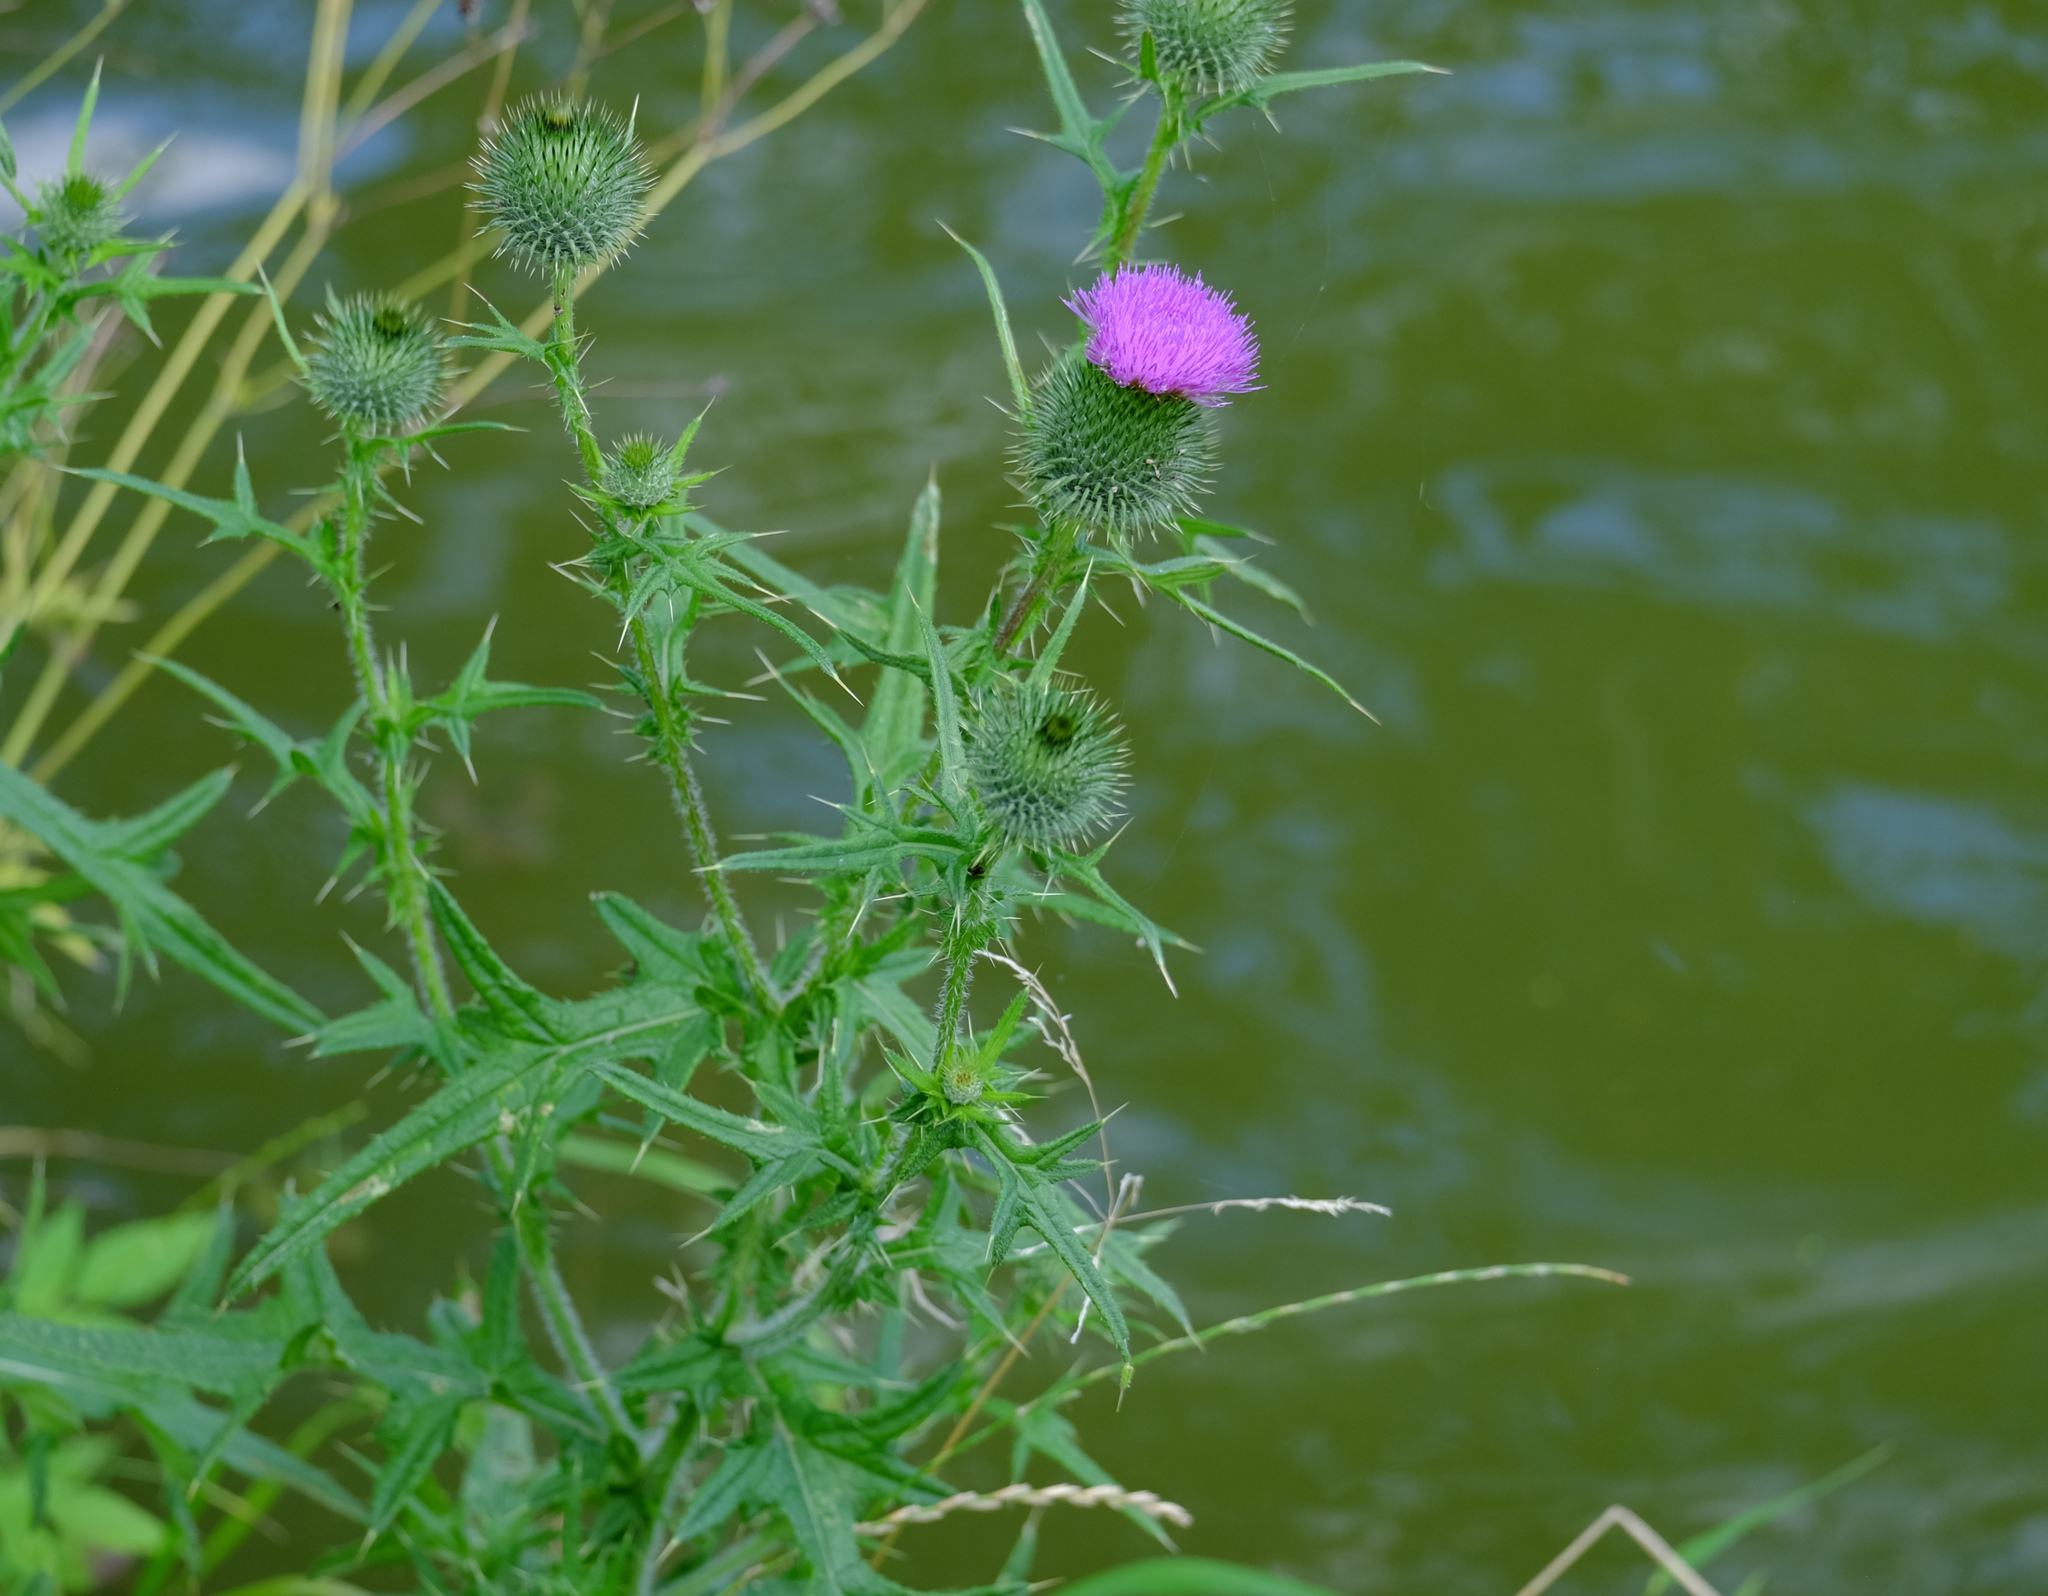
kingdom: Plantae
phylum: Tracheophyta
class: Magnoliopsida
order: Asterales
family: Asteraceae
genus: Cirsium
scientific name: Cirsium vulgare
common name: Bull thistle
